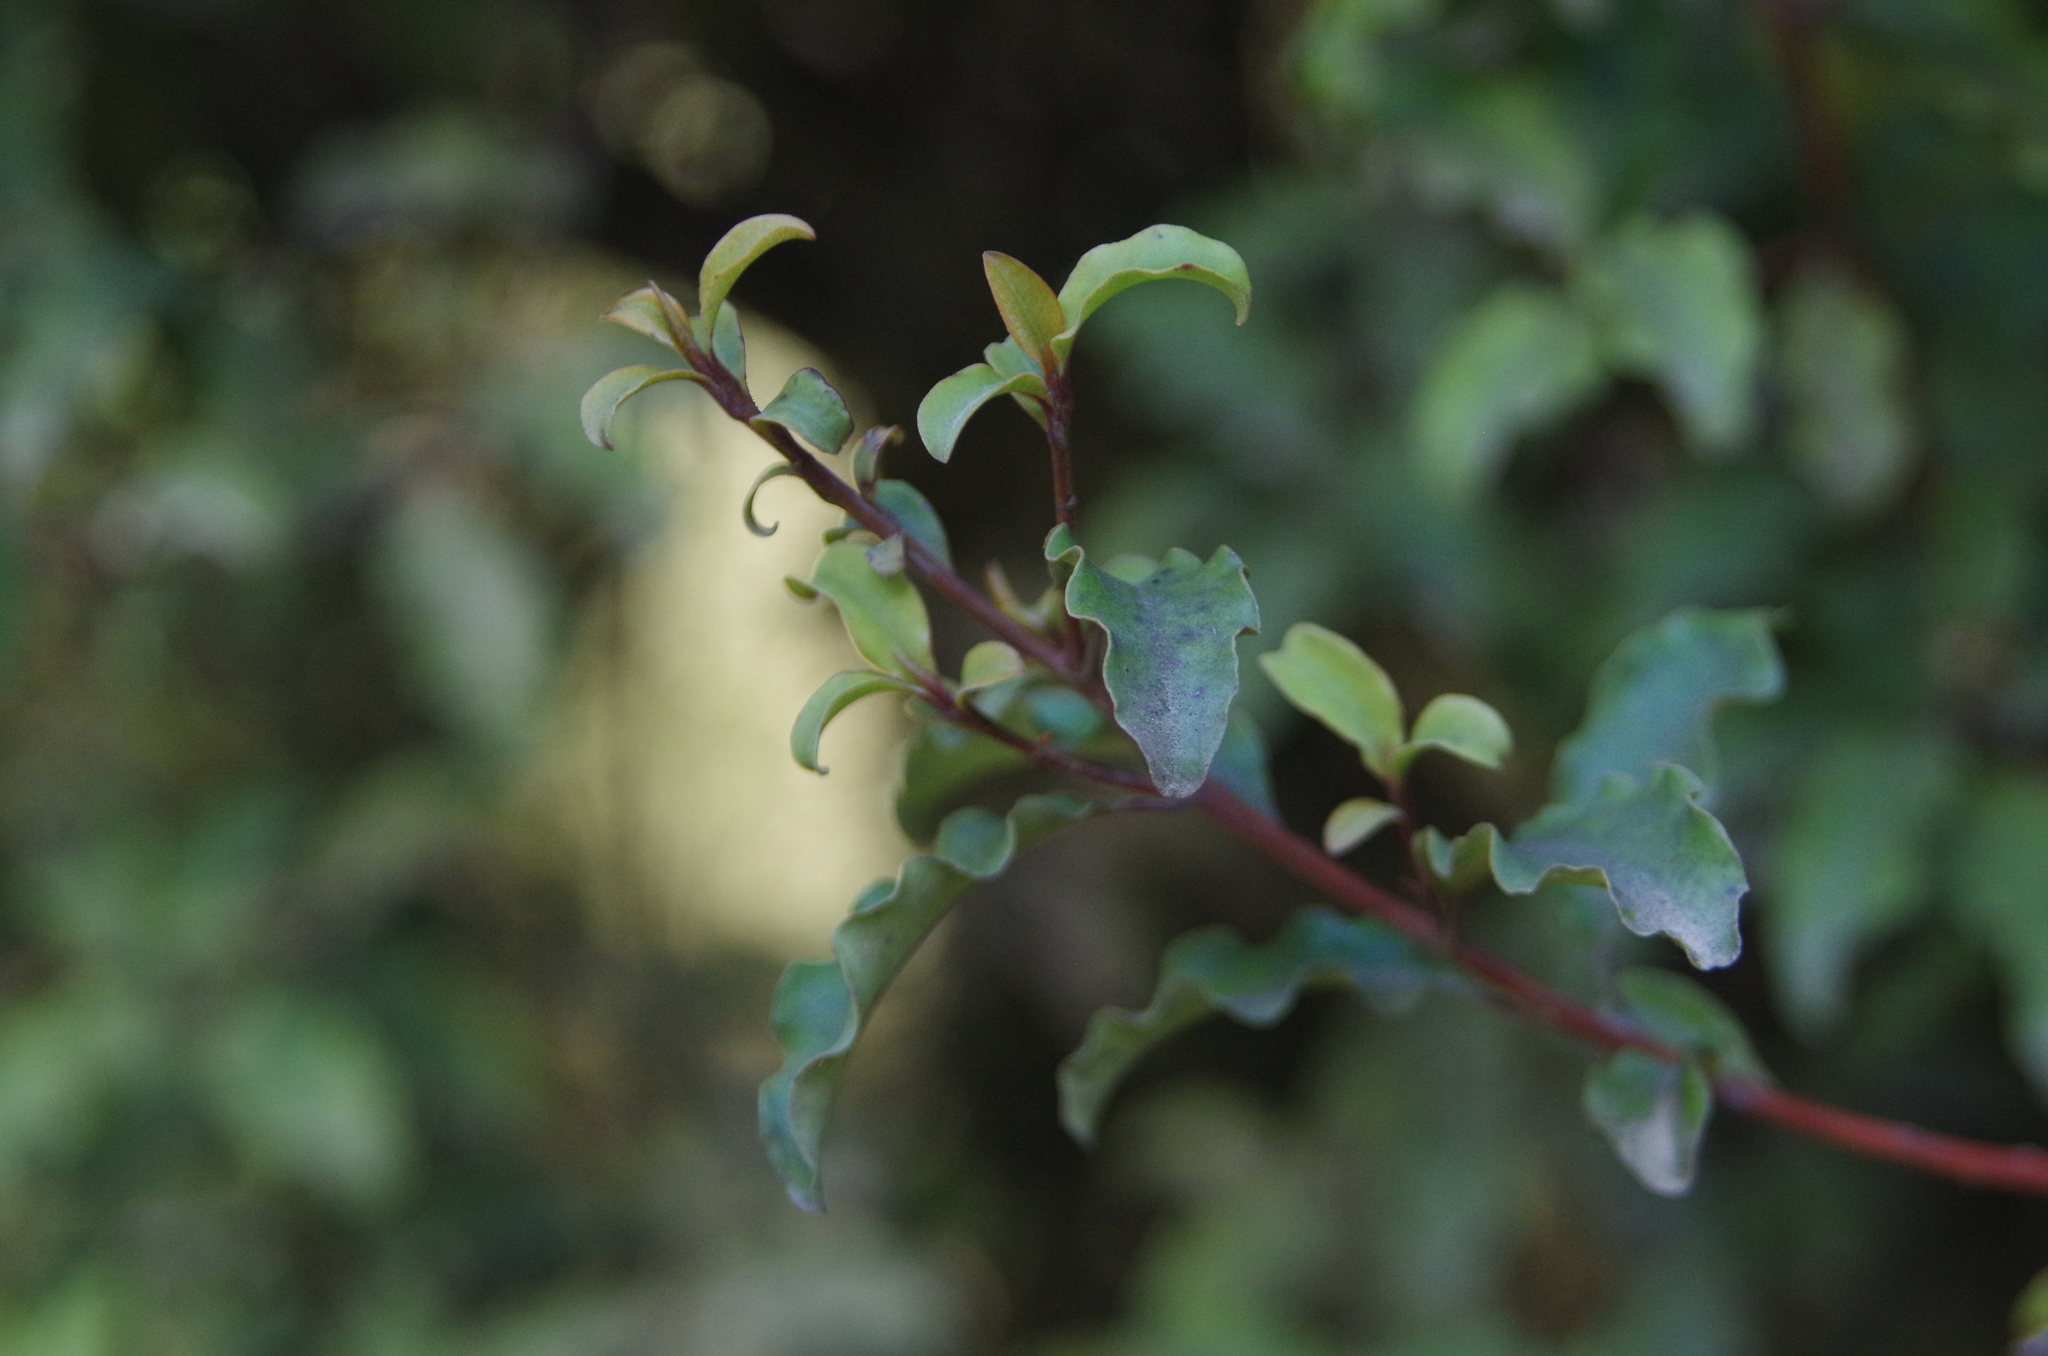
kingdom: Plantae
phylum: Tracheophyta
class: Magnoliopsida
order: Ericales
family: Primulaceae
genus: Myrsine
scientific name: Myrsine australis
